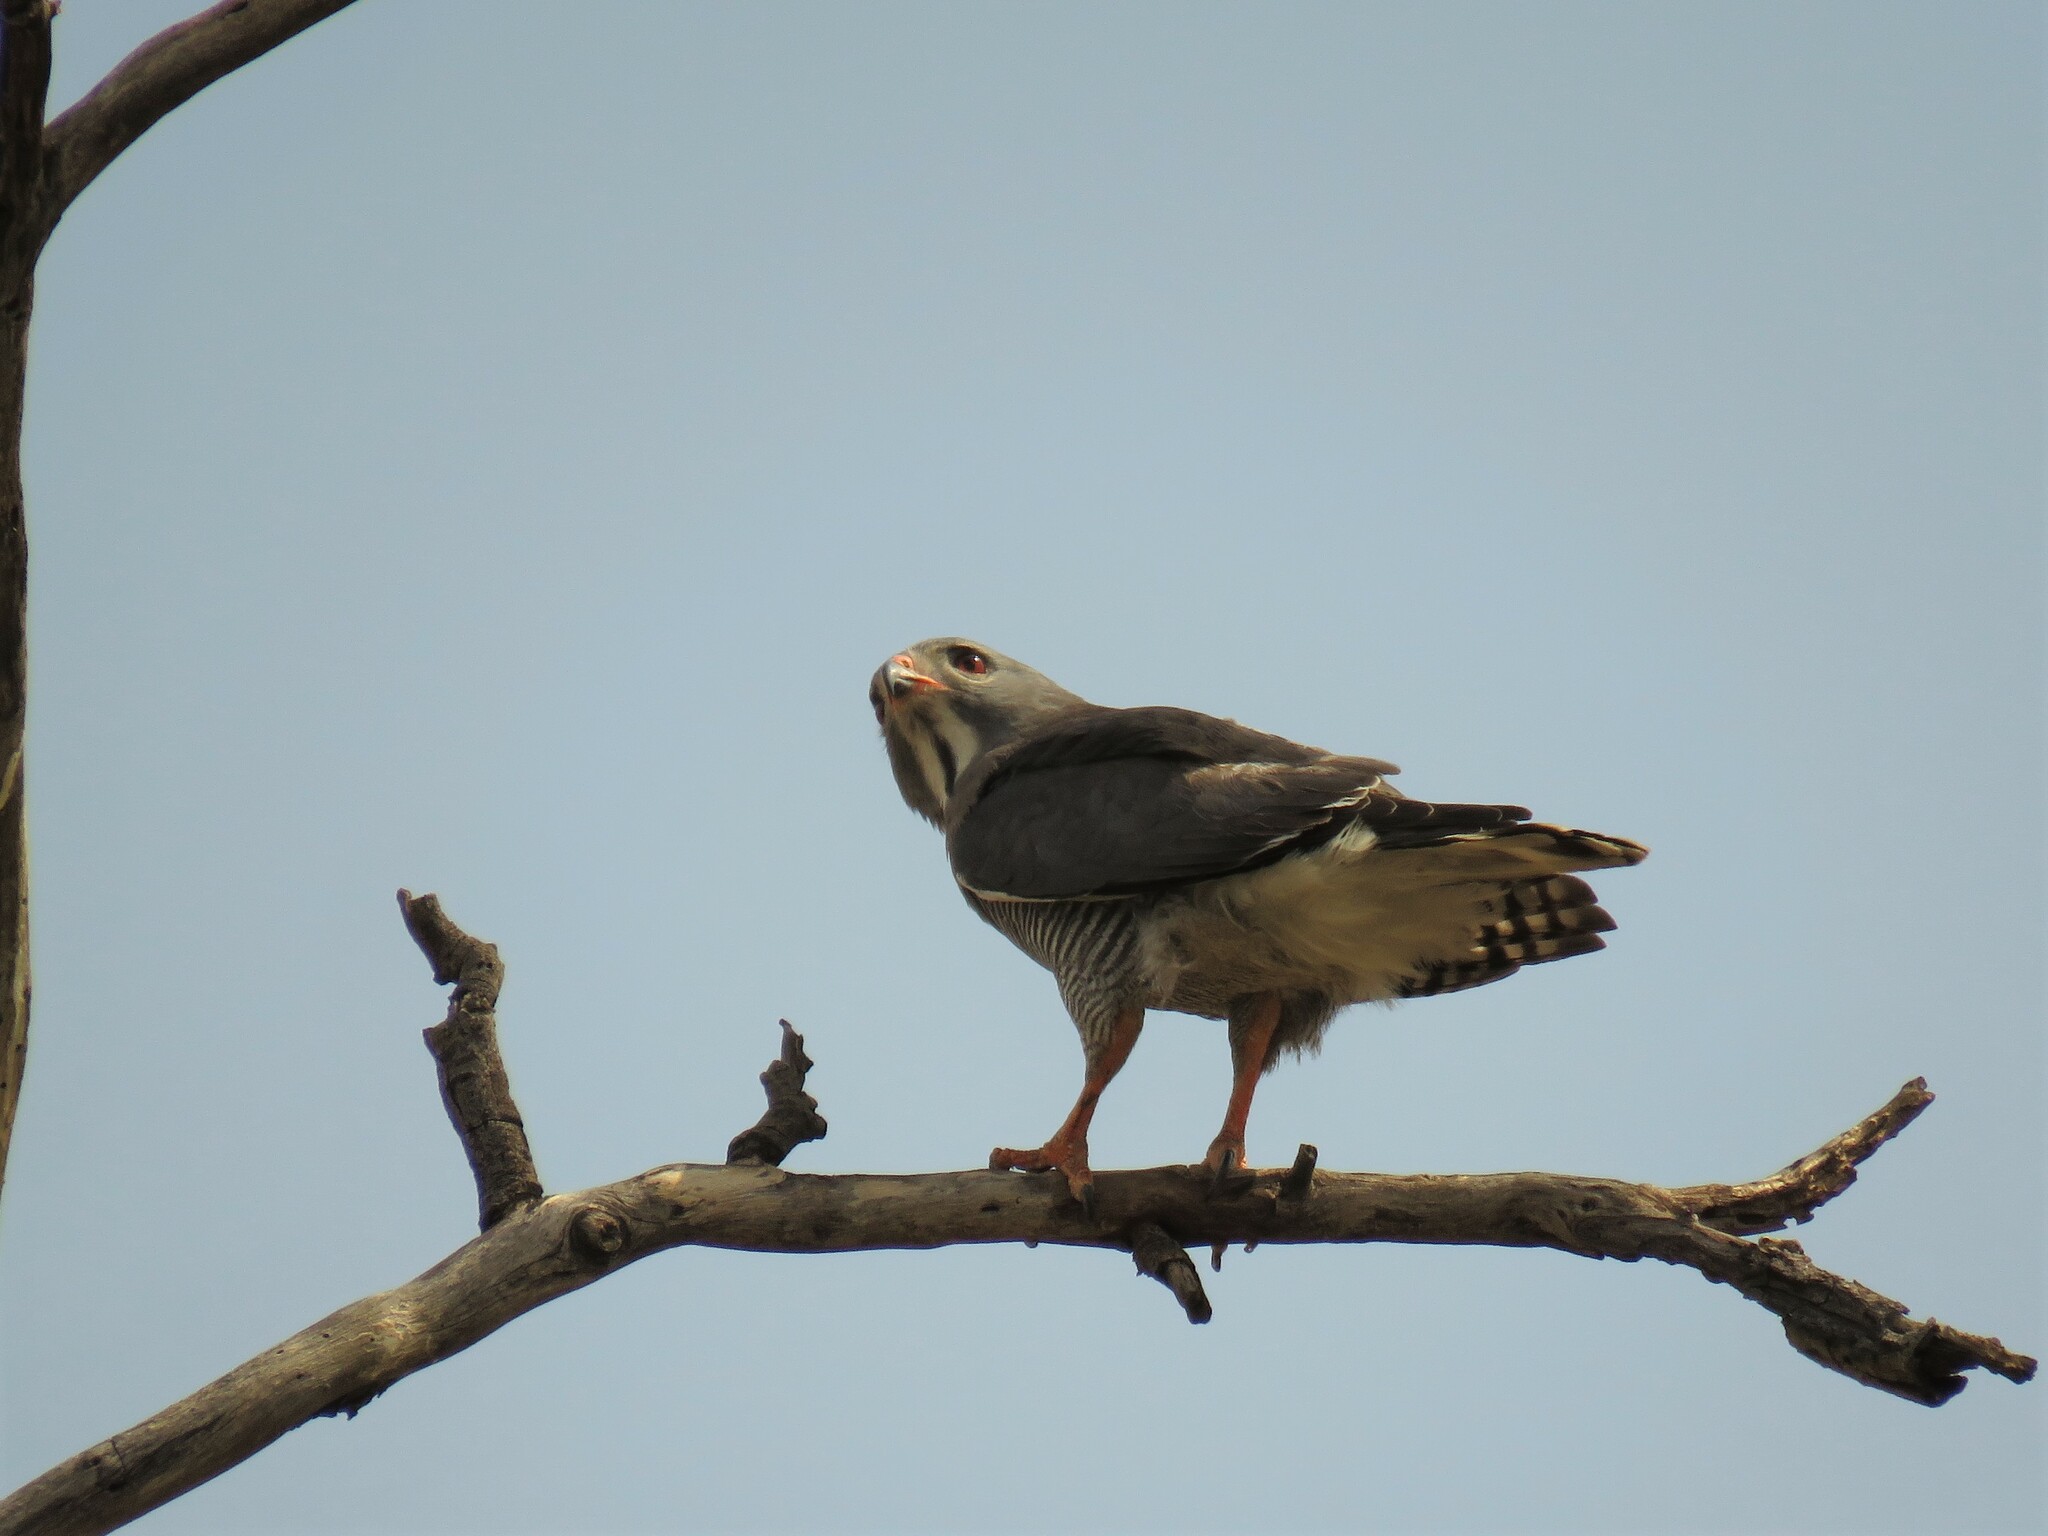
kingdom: Animalia
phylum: Chordata
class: Aves
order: Accipitriformes
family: Accipitridae
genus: Kaupifalco
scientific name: Kaupifalco monogrammicus
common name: Lizard buzzard
